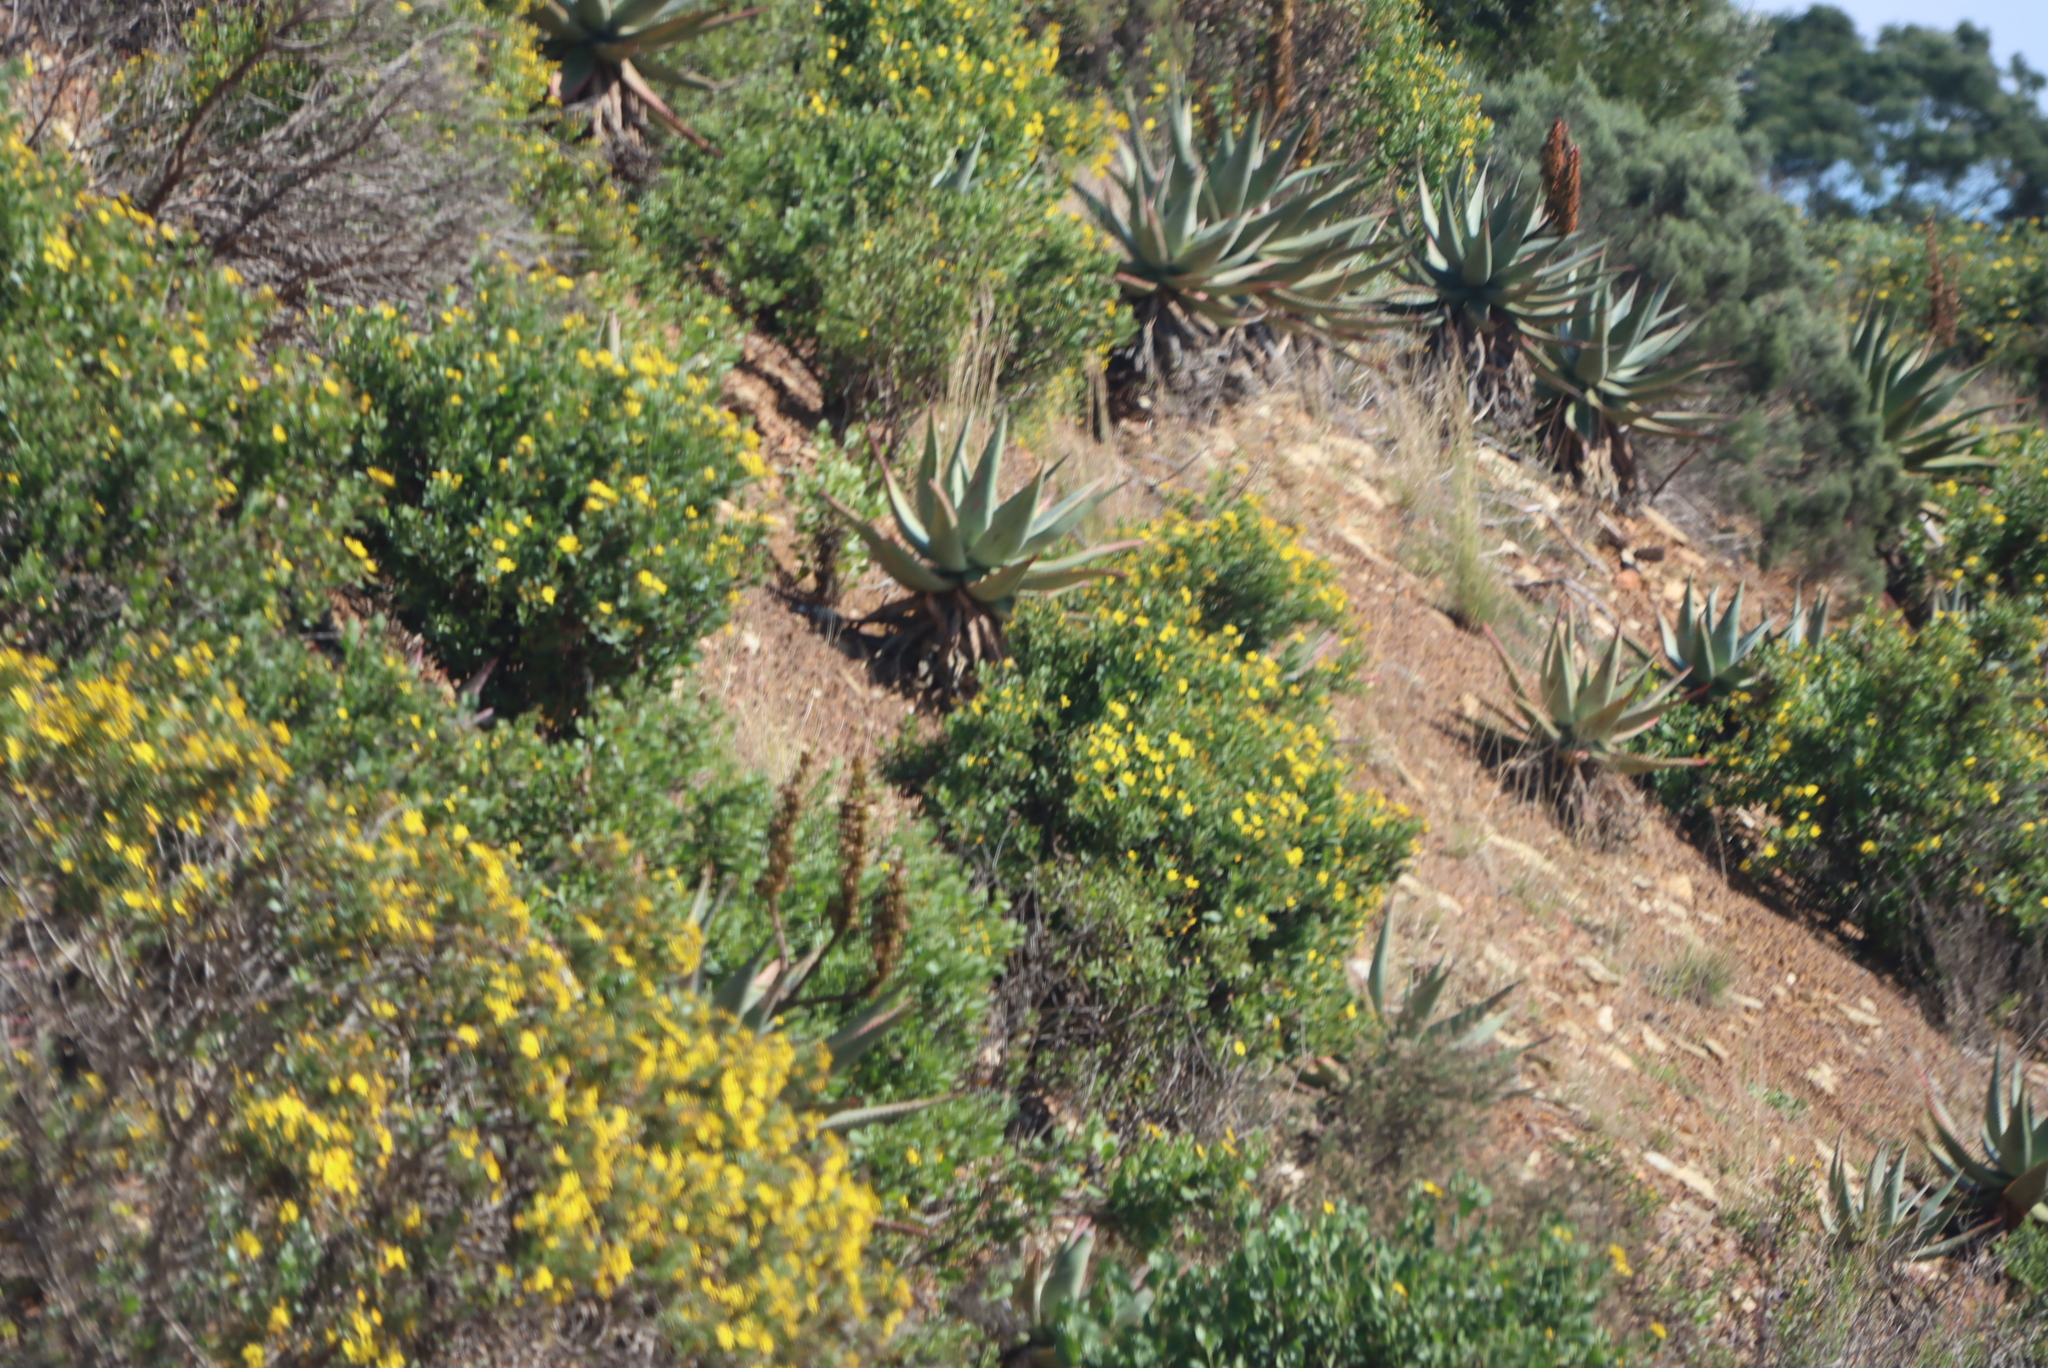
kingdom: Plantae
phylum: Tracheophyta
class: Magnoliopsida
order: Asterales
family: Asteraceae
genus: Osteospermum
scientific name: Osteospermum moniliferum
